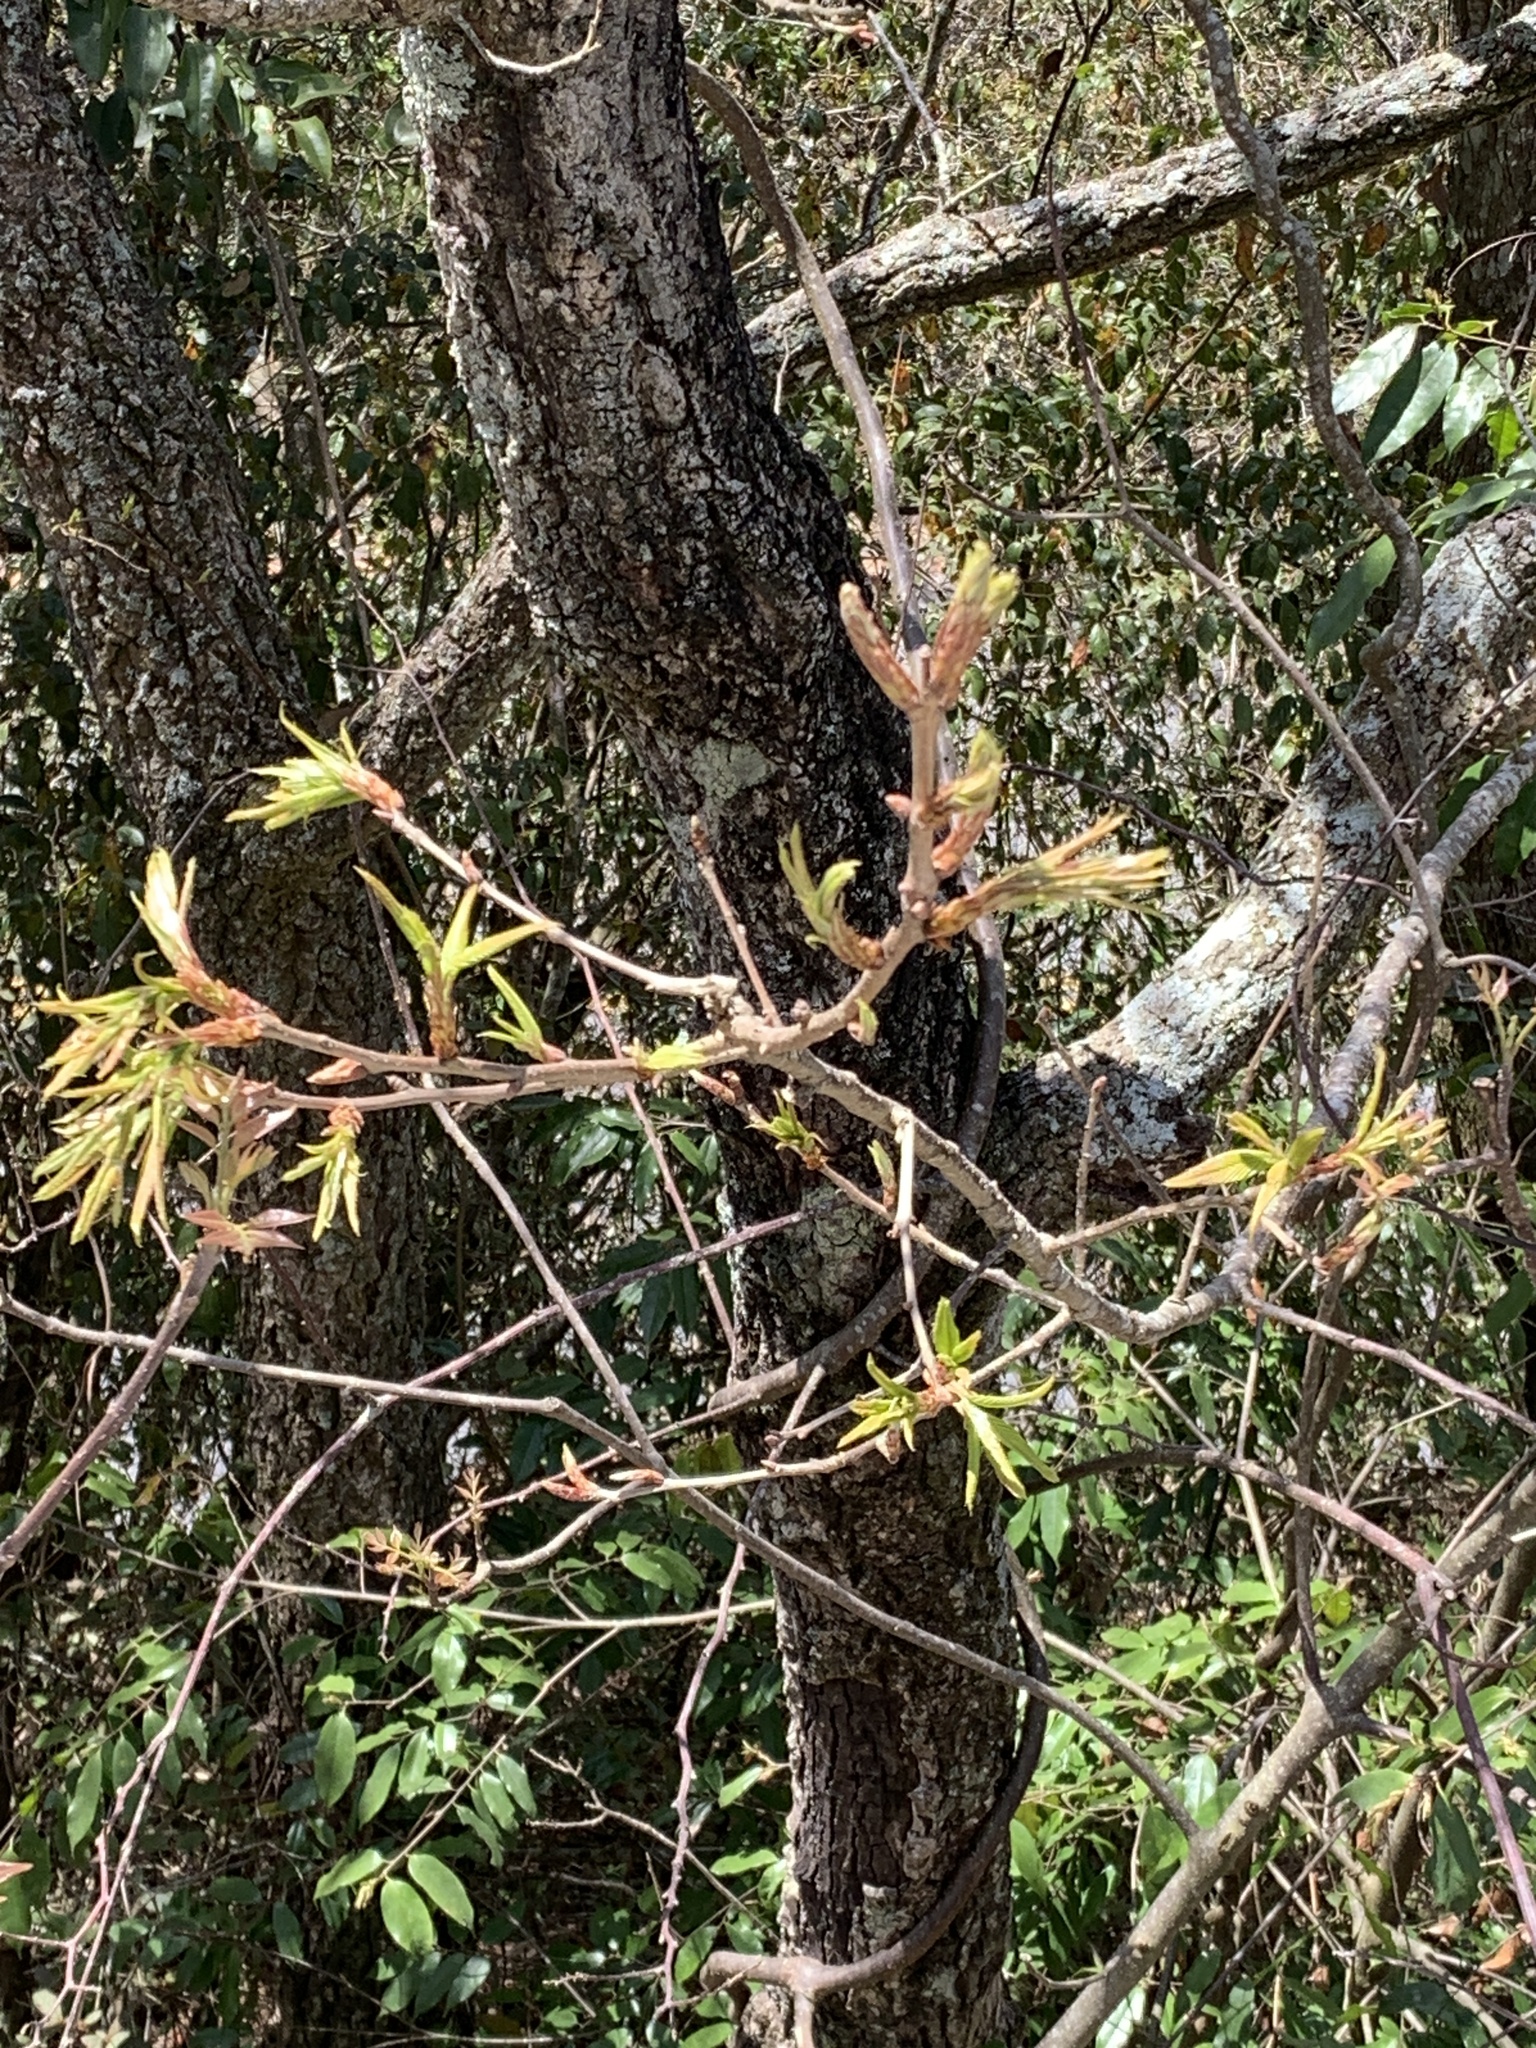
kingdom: Plantae
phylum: Tracheophyta
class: Magnoliopsida
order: Laurales
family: Lauraceae
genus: Litsea
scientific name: Litsea cubeba
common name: Mountain-pepper
